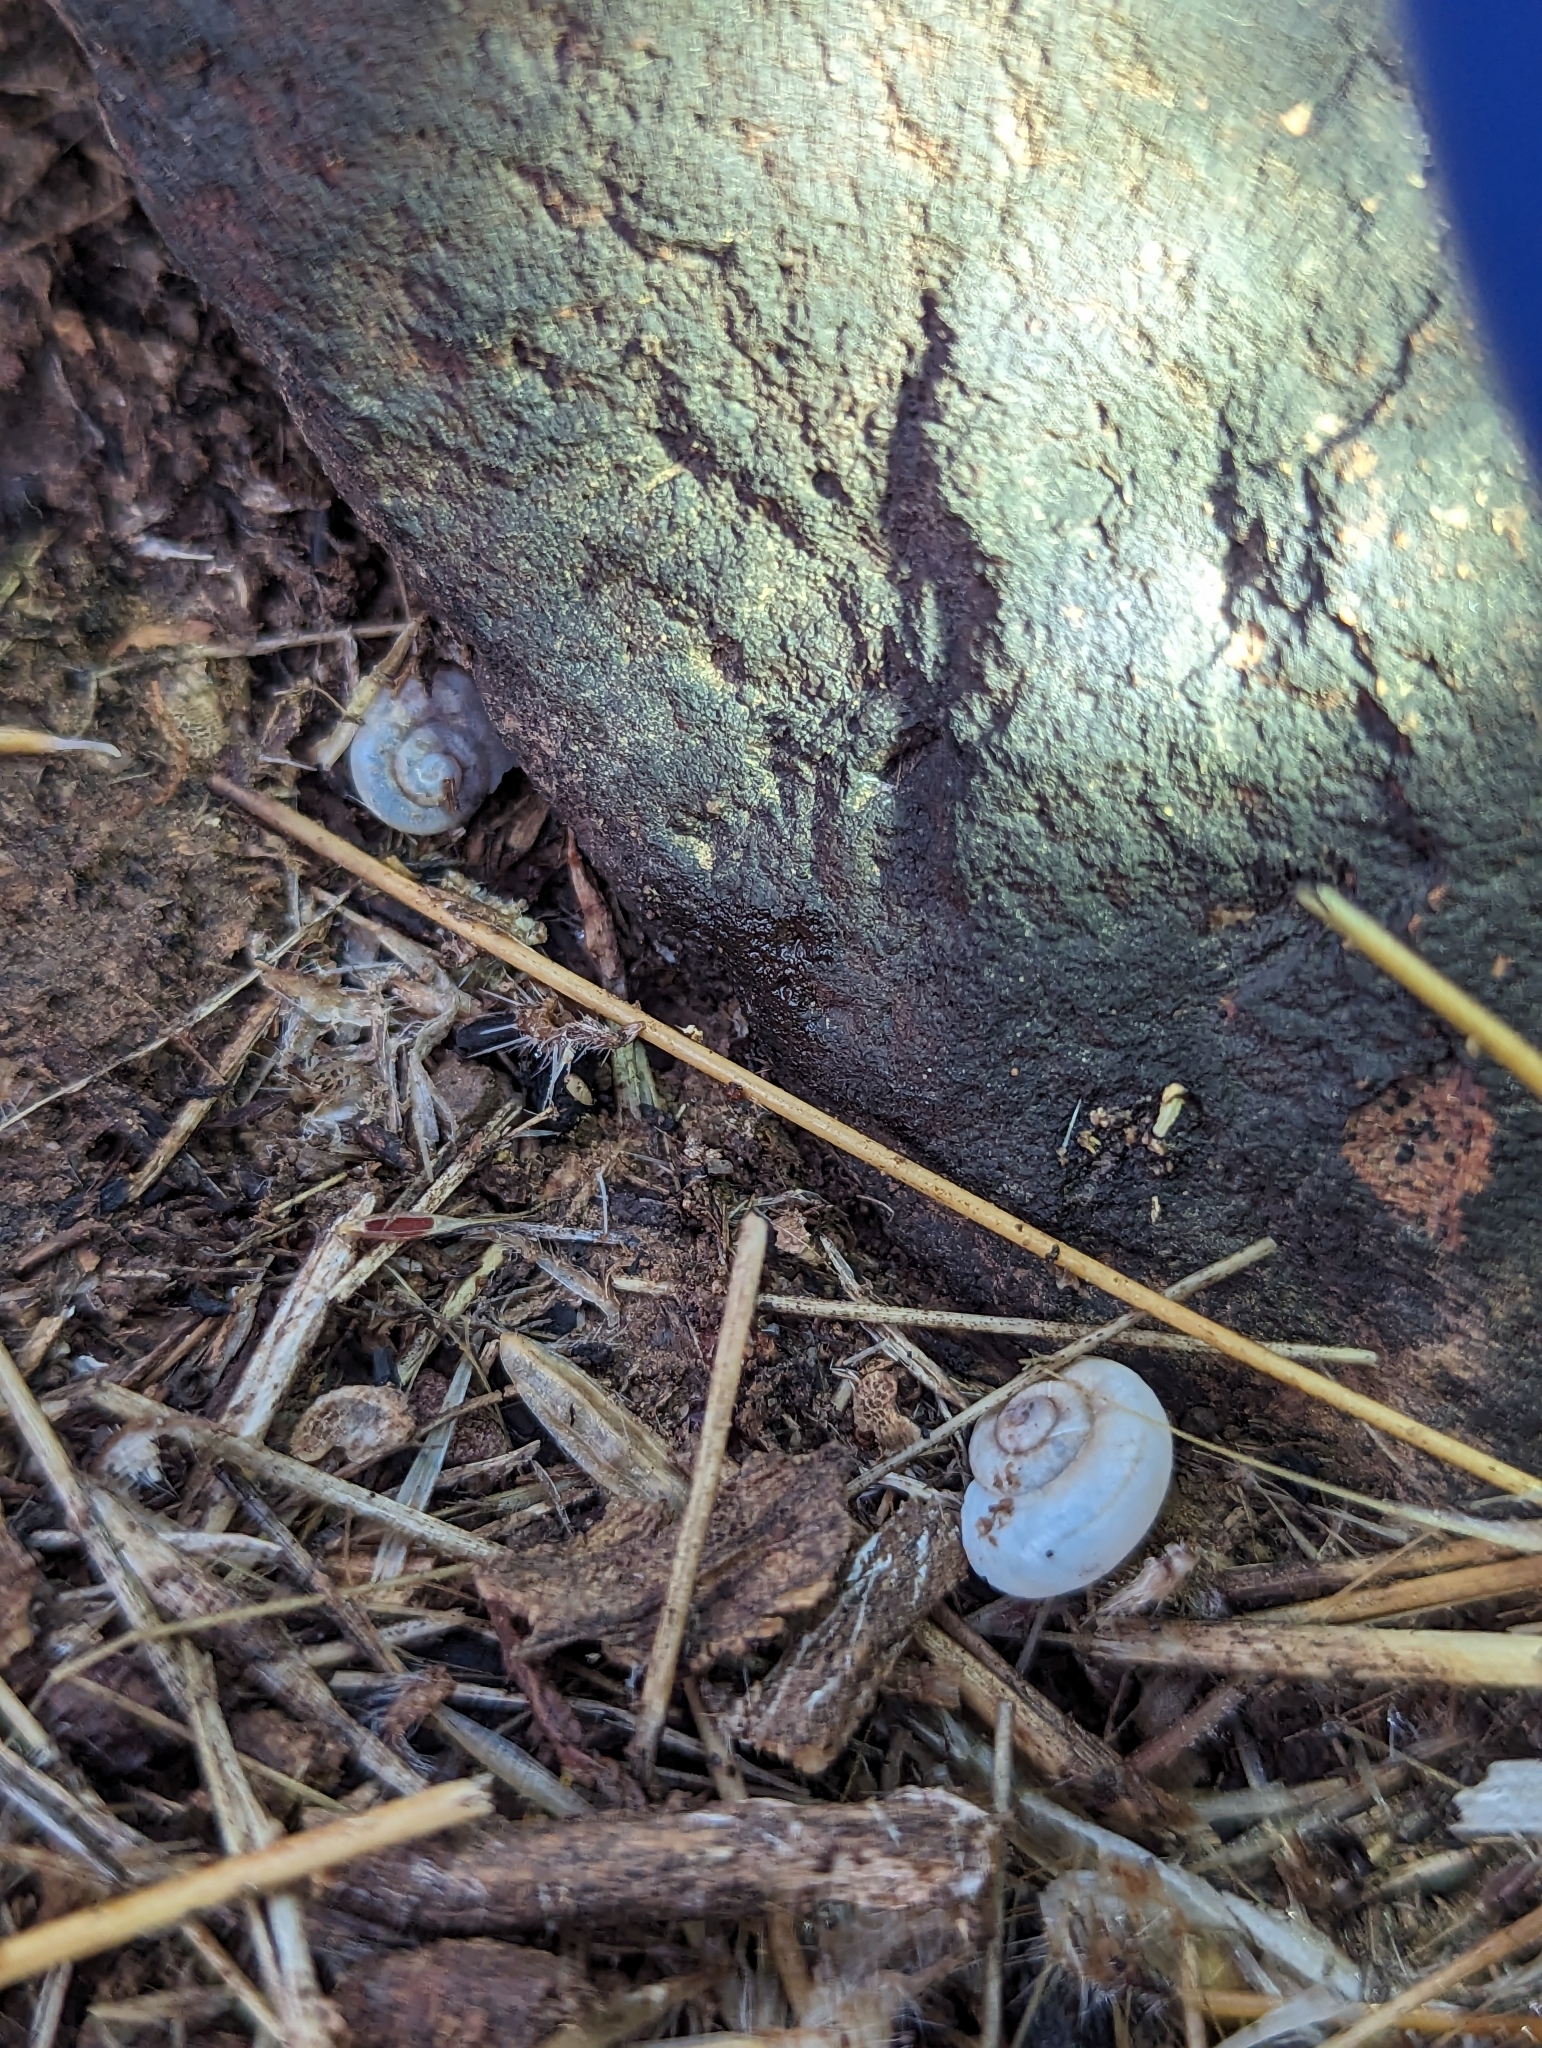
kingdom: Animalia
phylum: Mollusca
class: Gastropoda
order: Stylommatophora
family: Xanthonychidae
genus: Maricopella
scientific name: Maricopella allynsmithi
